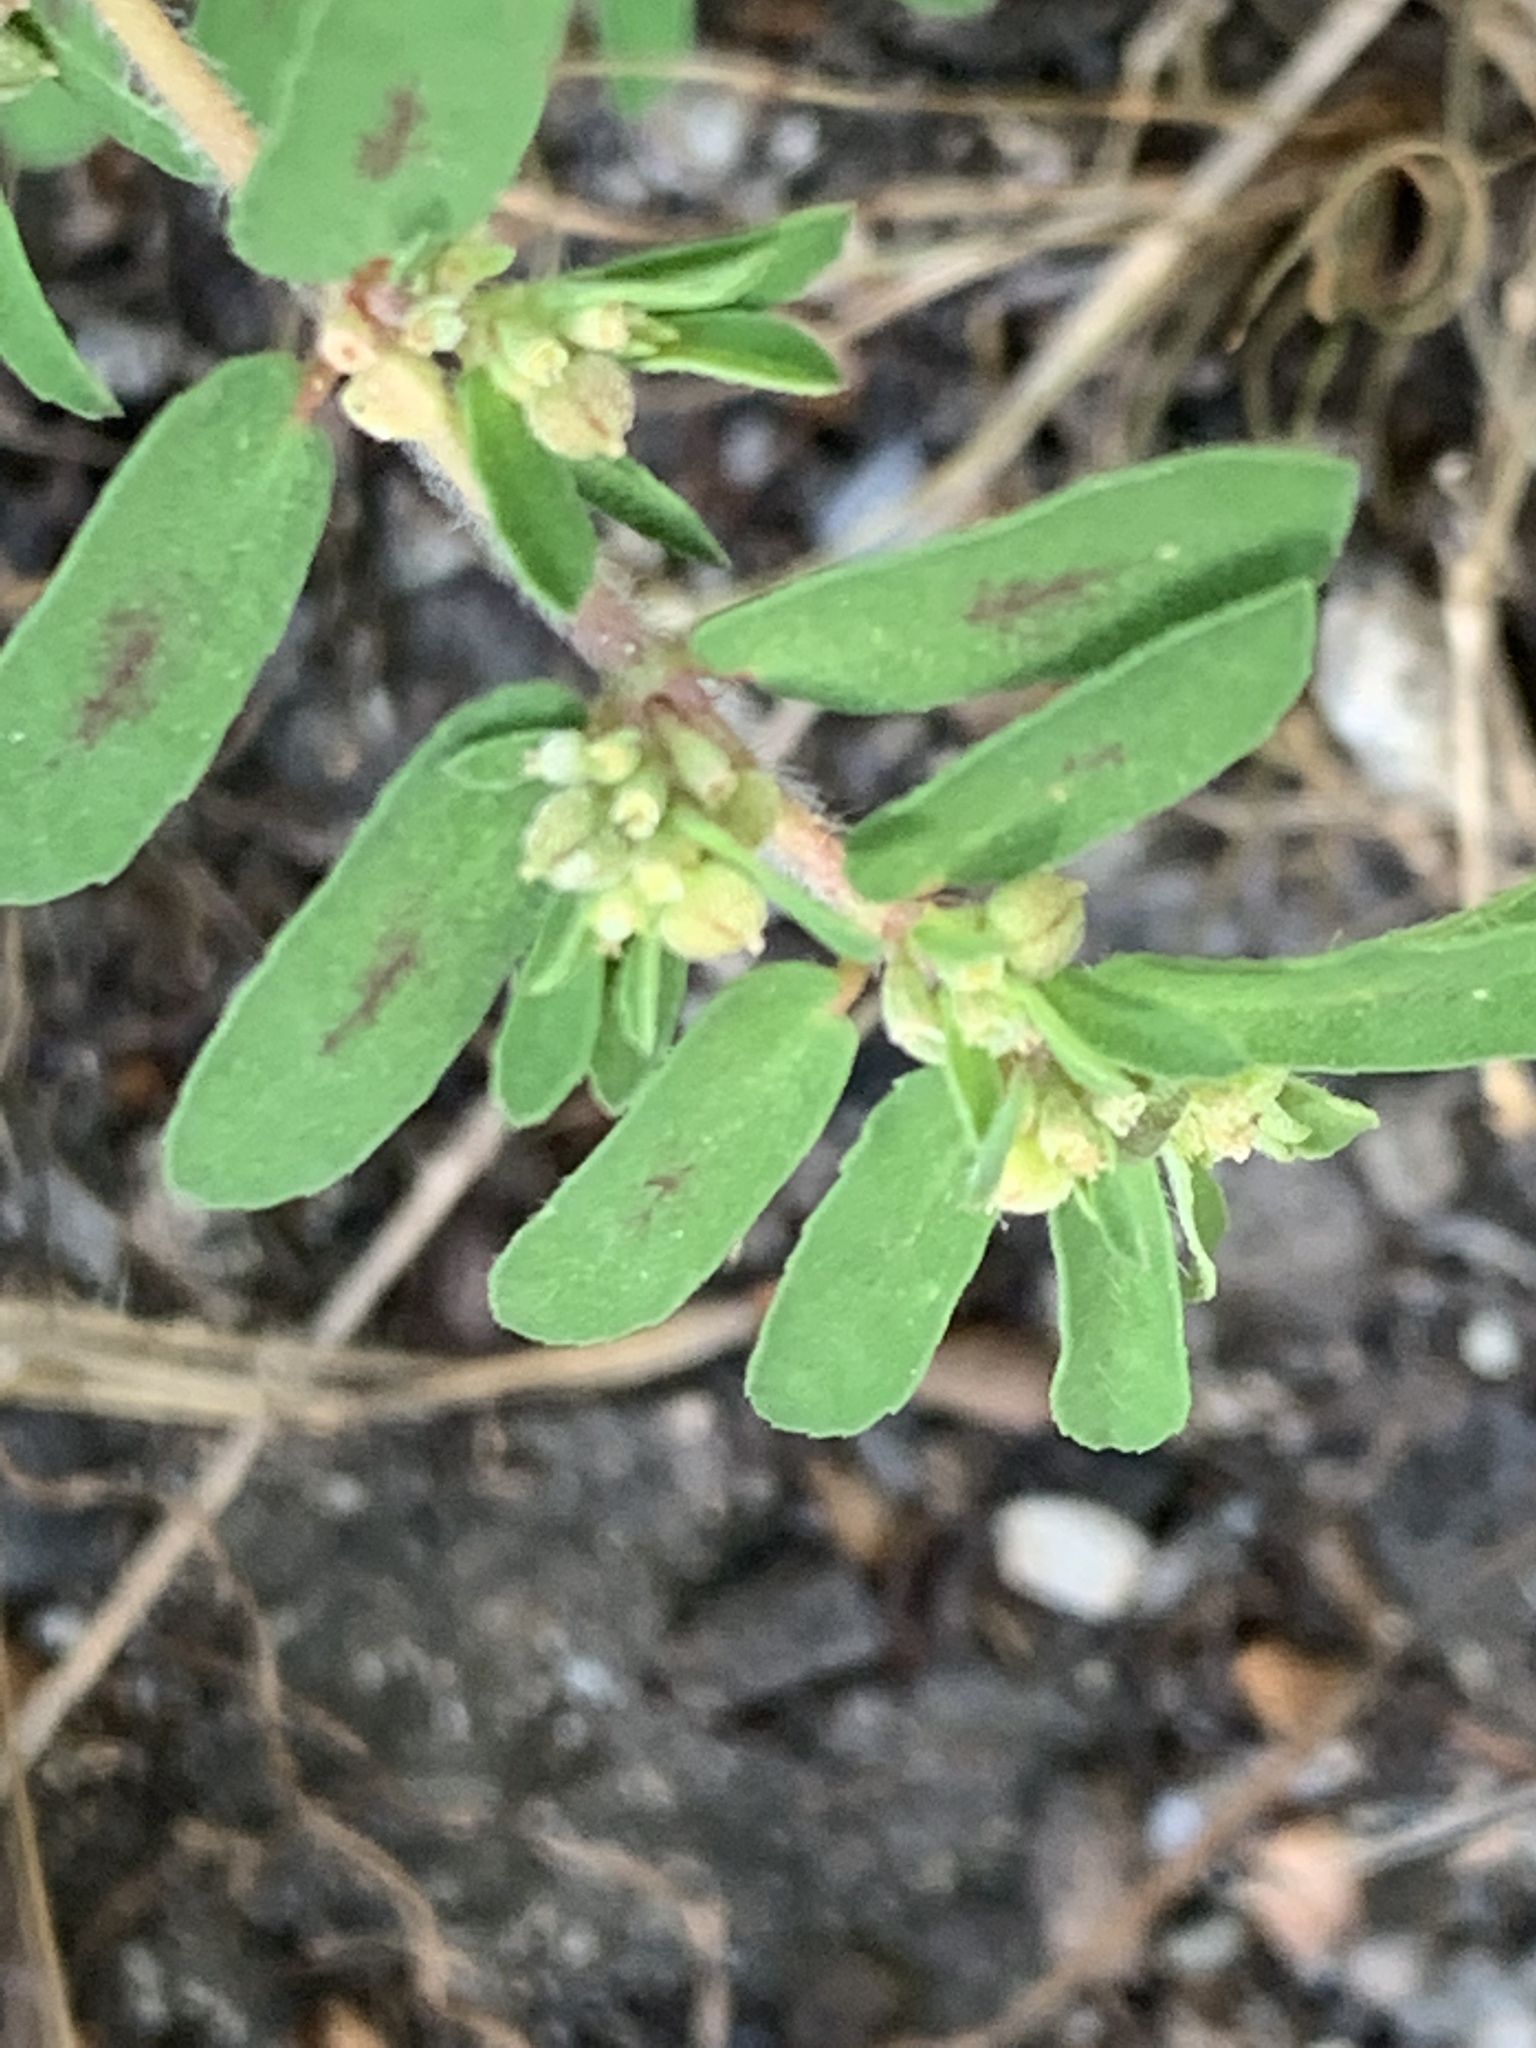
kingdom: Plantae
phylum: Tracheophyta
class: Magnoliopsida
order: Malpighiales
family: Euphorbiaceae
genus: Euphorbia
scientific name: Euphorbia maculata
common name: Spotted spurge
